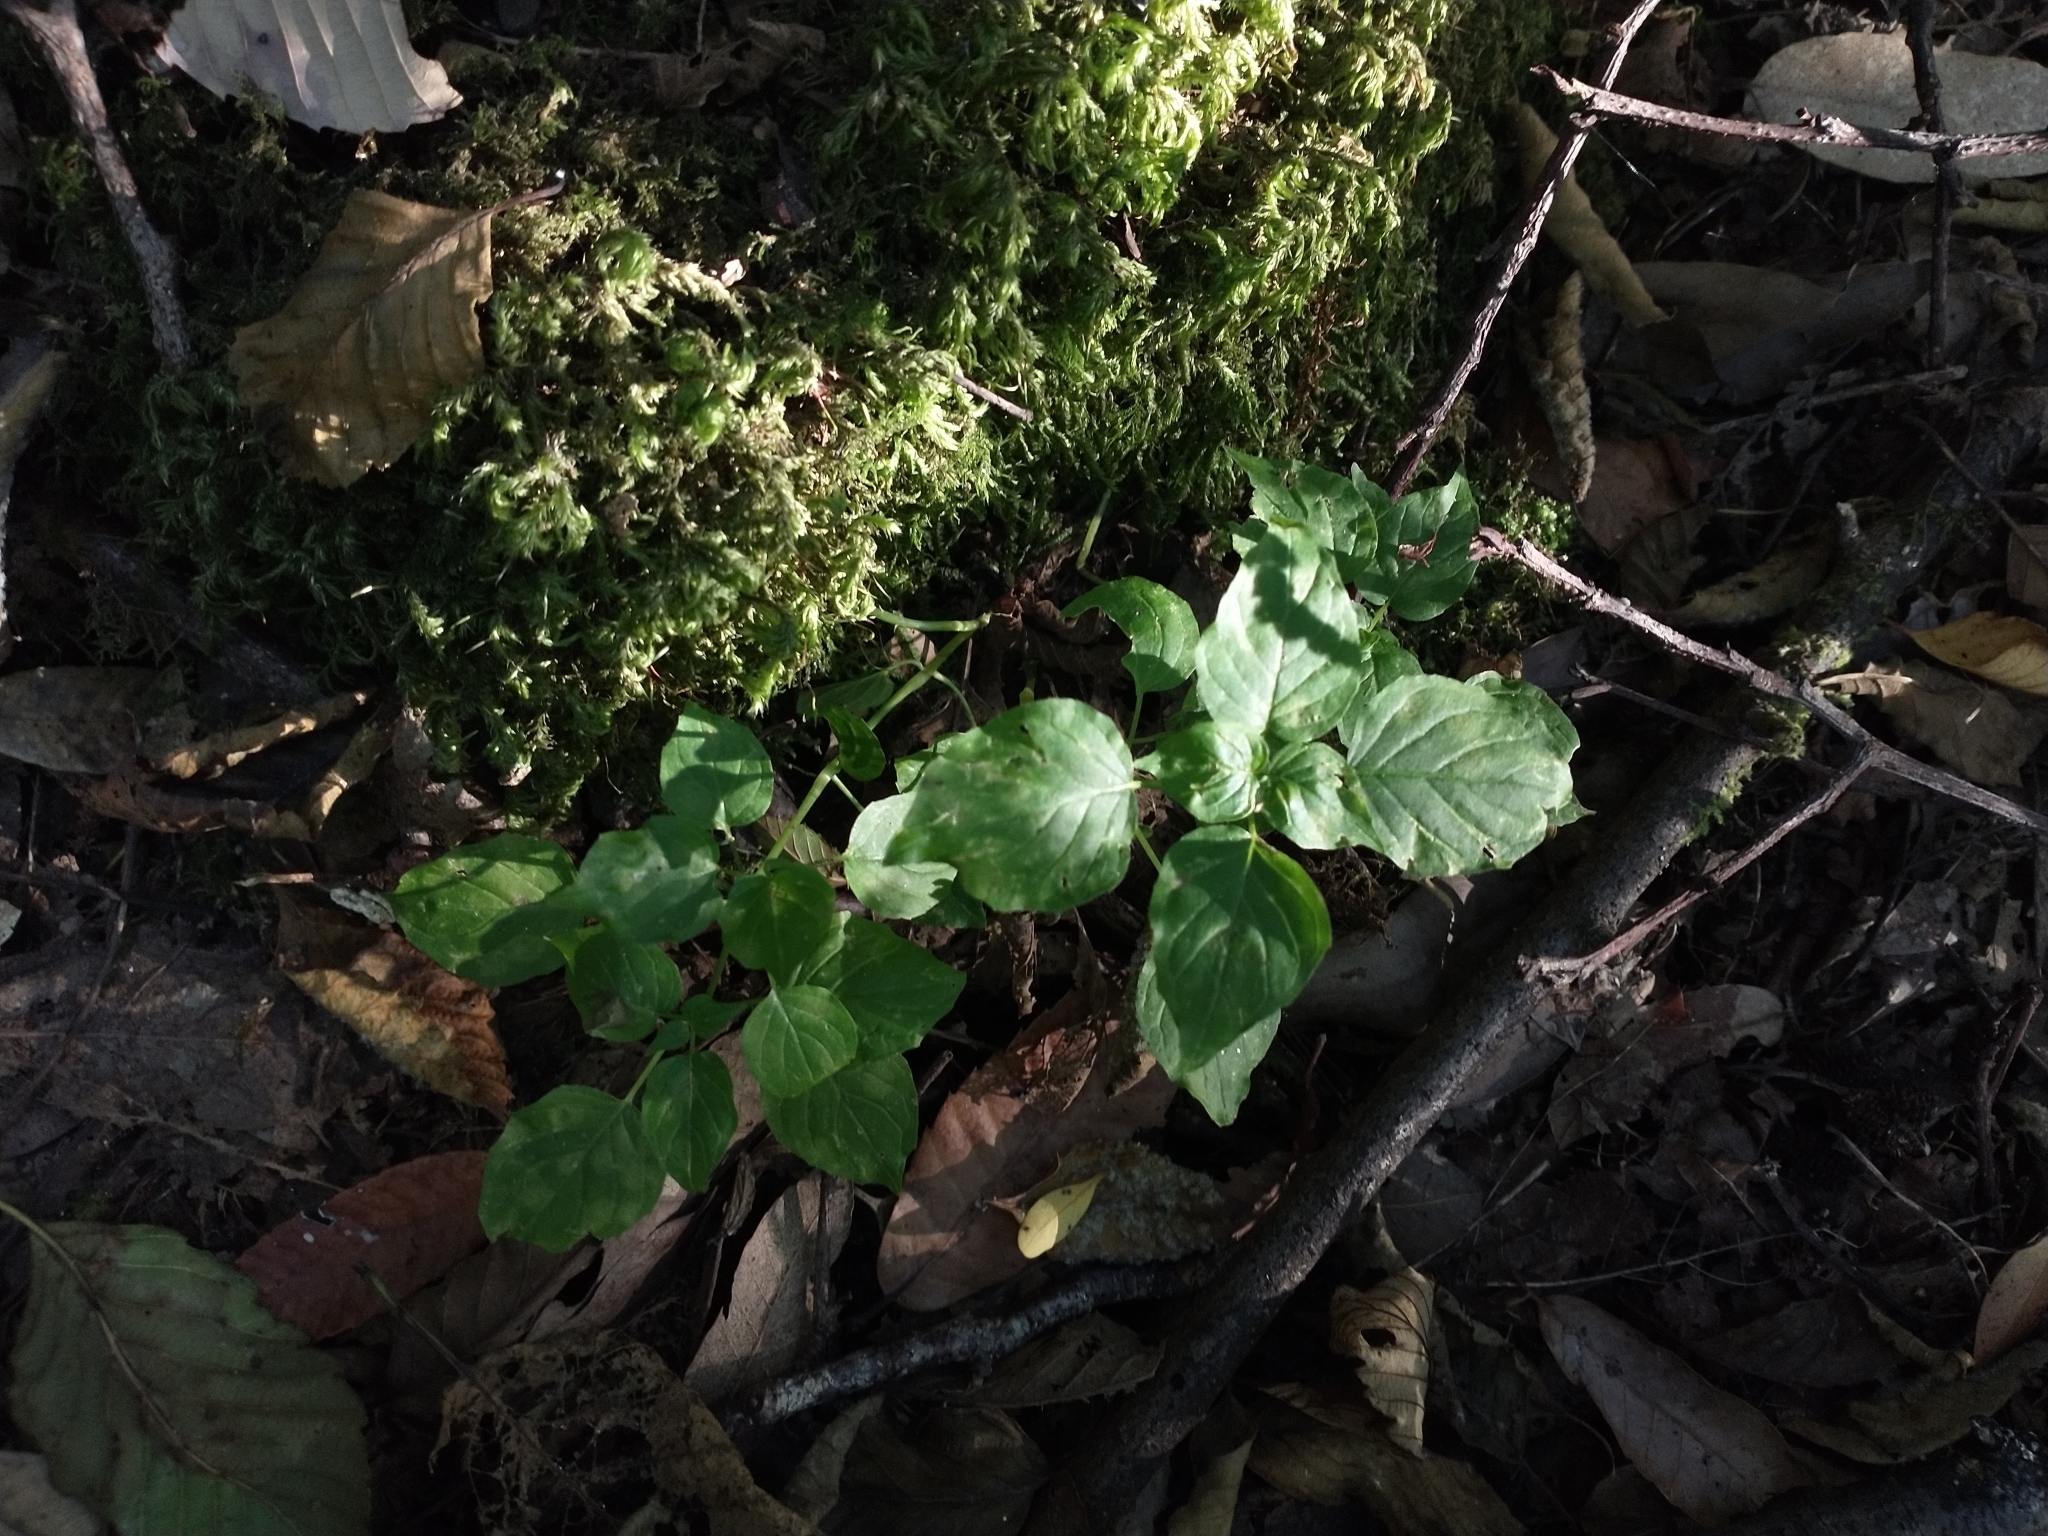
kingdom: Plantae
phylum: Tracheophyta
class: Magnoliopsida
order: Myrtales
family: Onagraceae
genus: Circaea
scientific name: Circaea alpina
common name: Alpine enchanter's-nightshade
